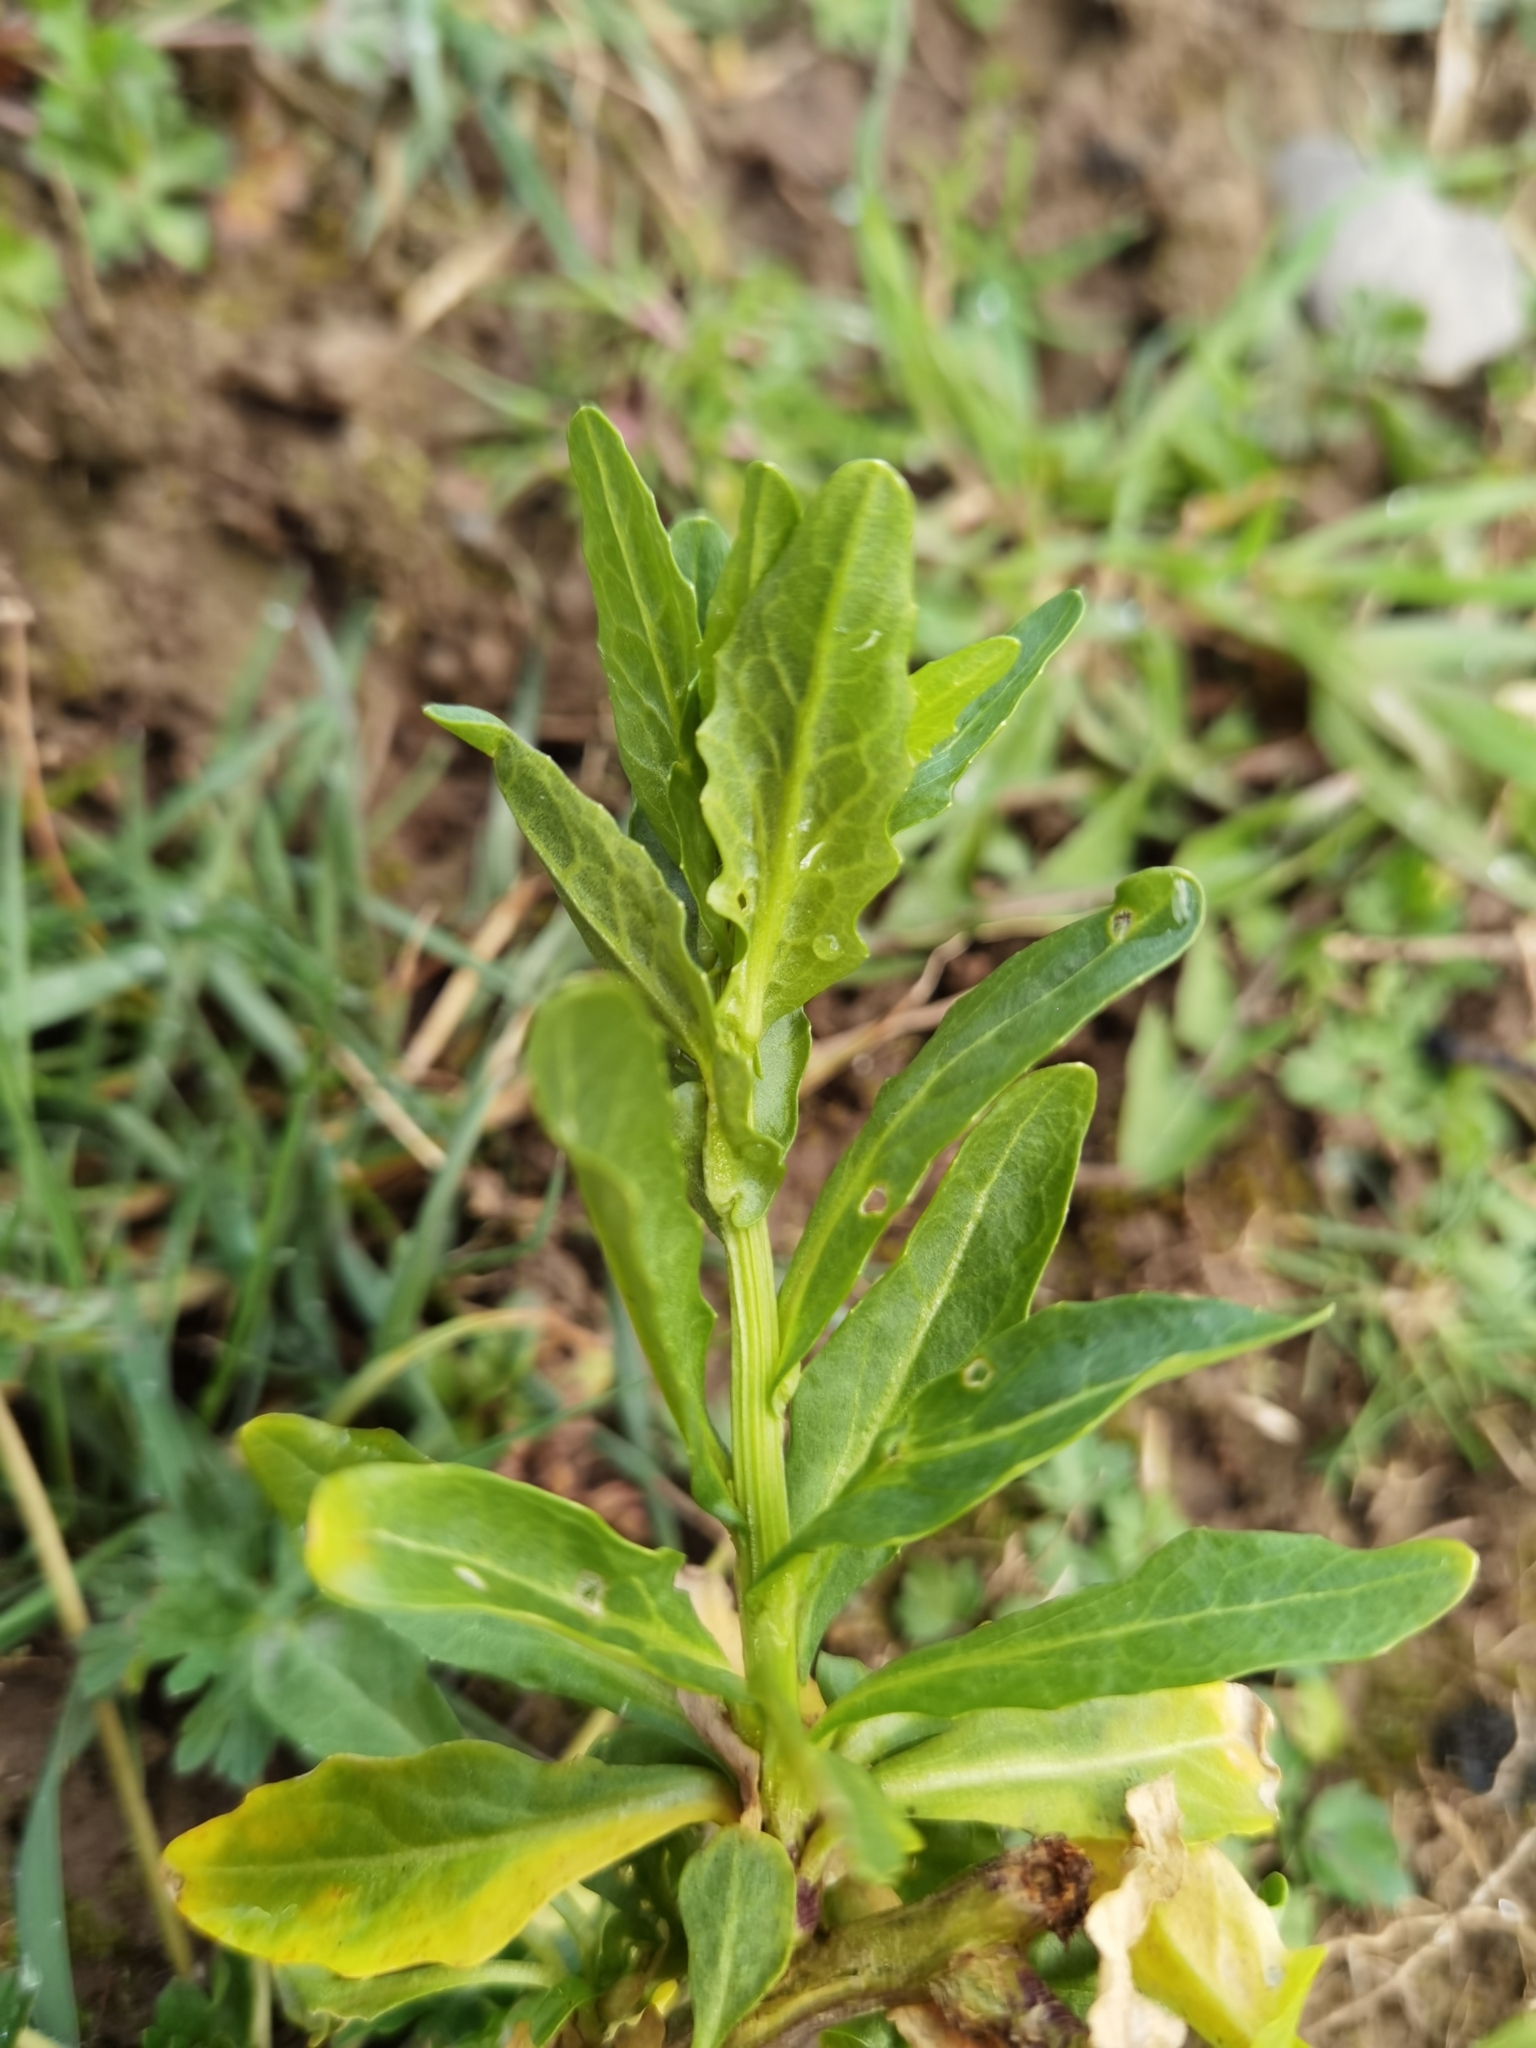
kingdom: Plantae
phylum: Tracheophyta
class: Magnoliopsida
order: Brassicales
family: Brassicaceae
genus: Thlaspi
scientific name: Thlaspi arvense
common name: Field pennycress
